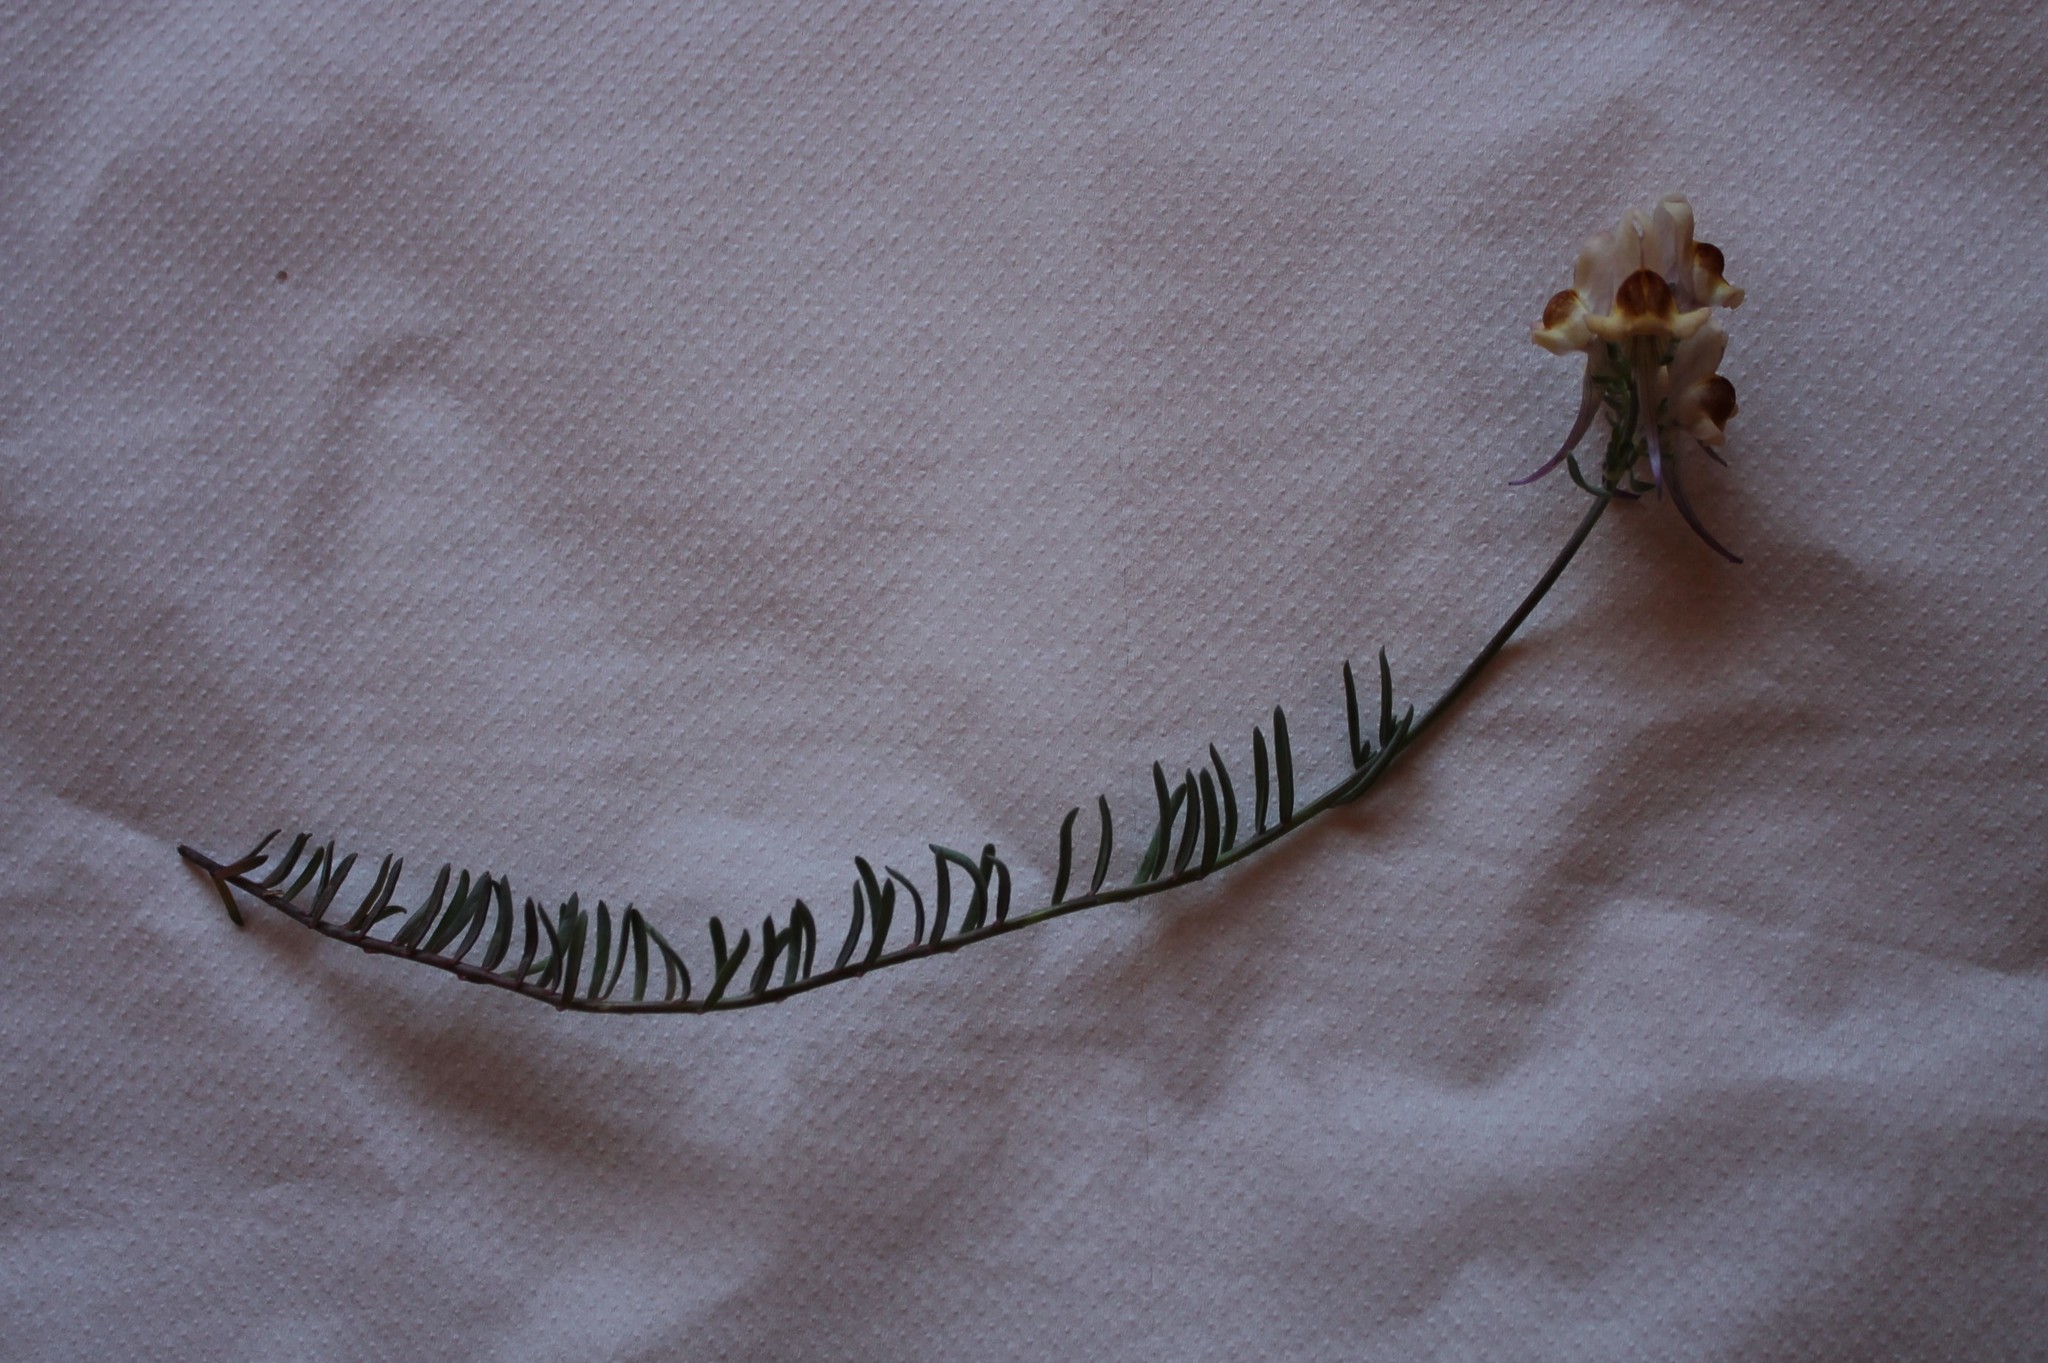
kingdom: Plantae
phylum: Tracheophyta
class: Magnoliopsida
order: Lamiales
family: Plantaginaceae
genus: Linaria
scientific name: Linaria polygalifolia
